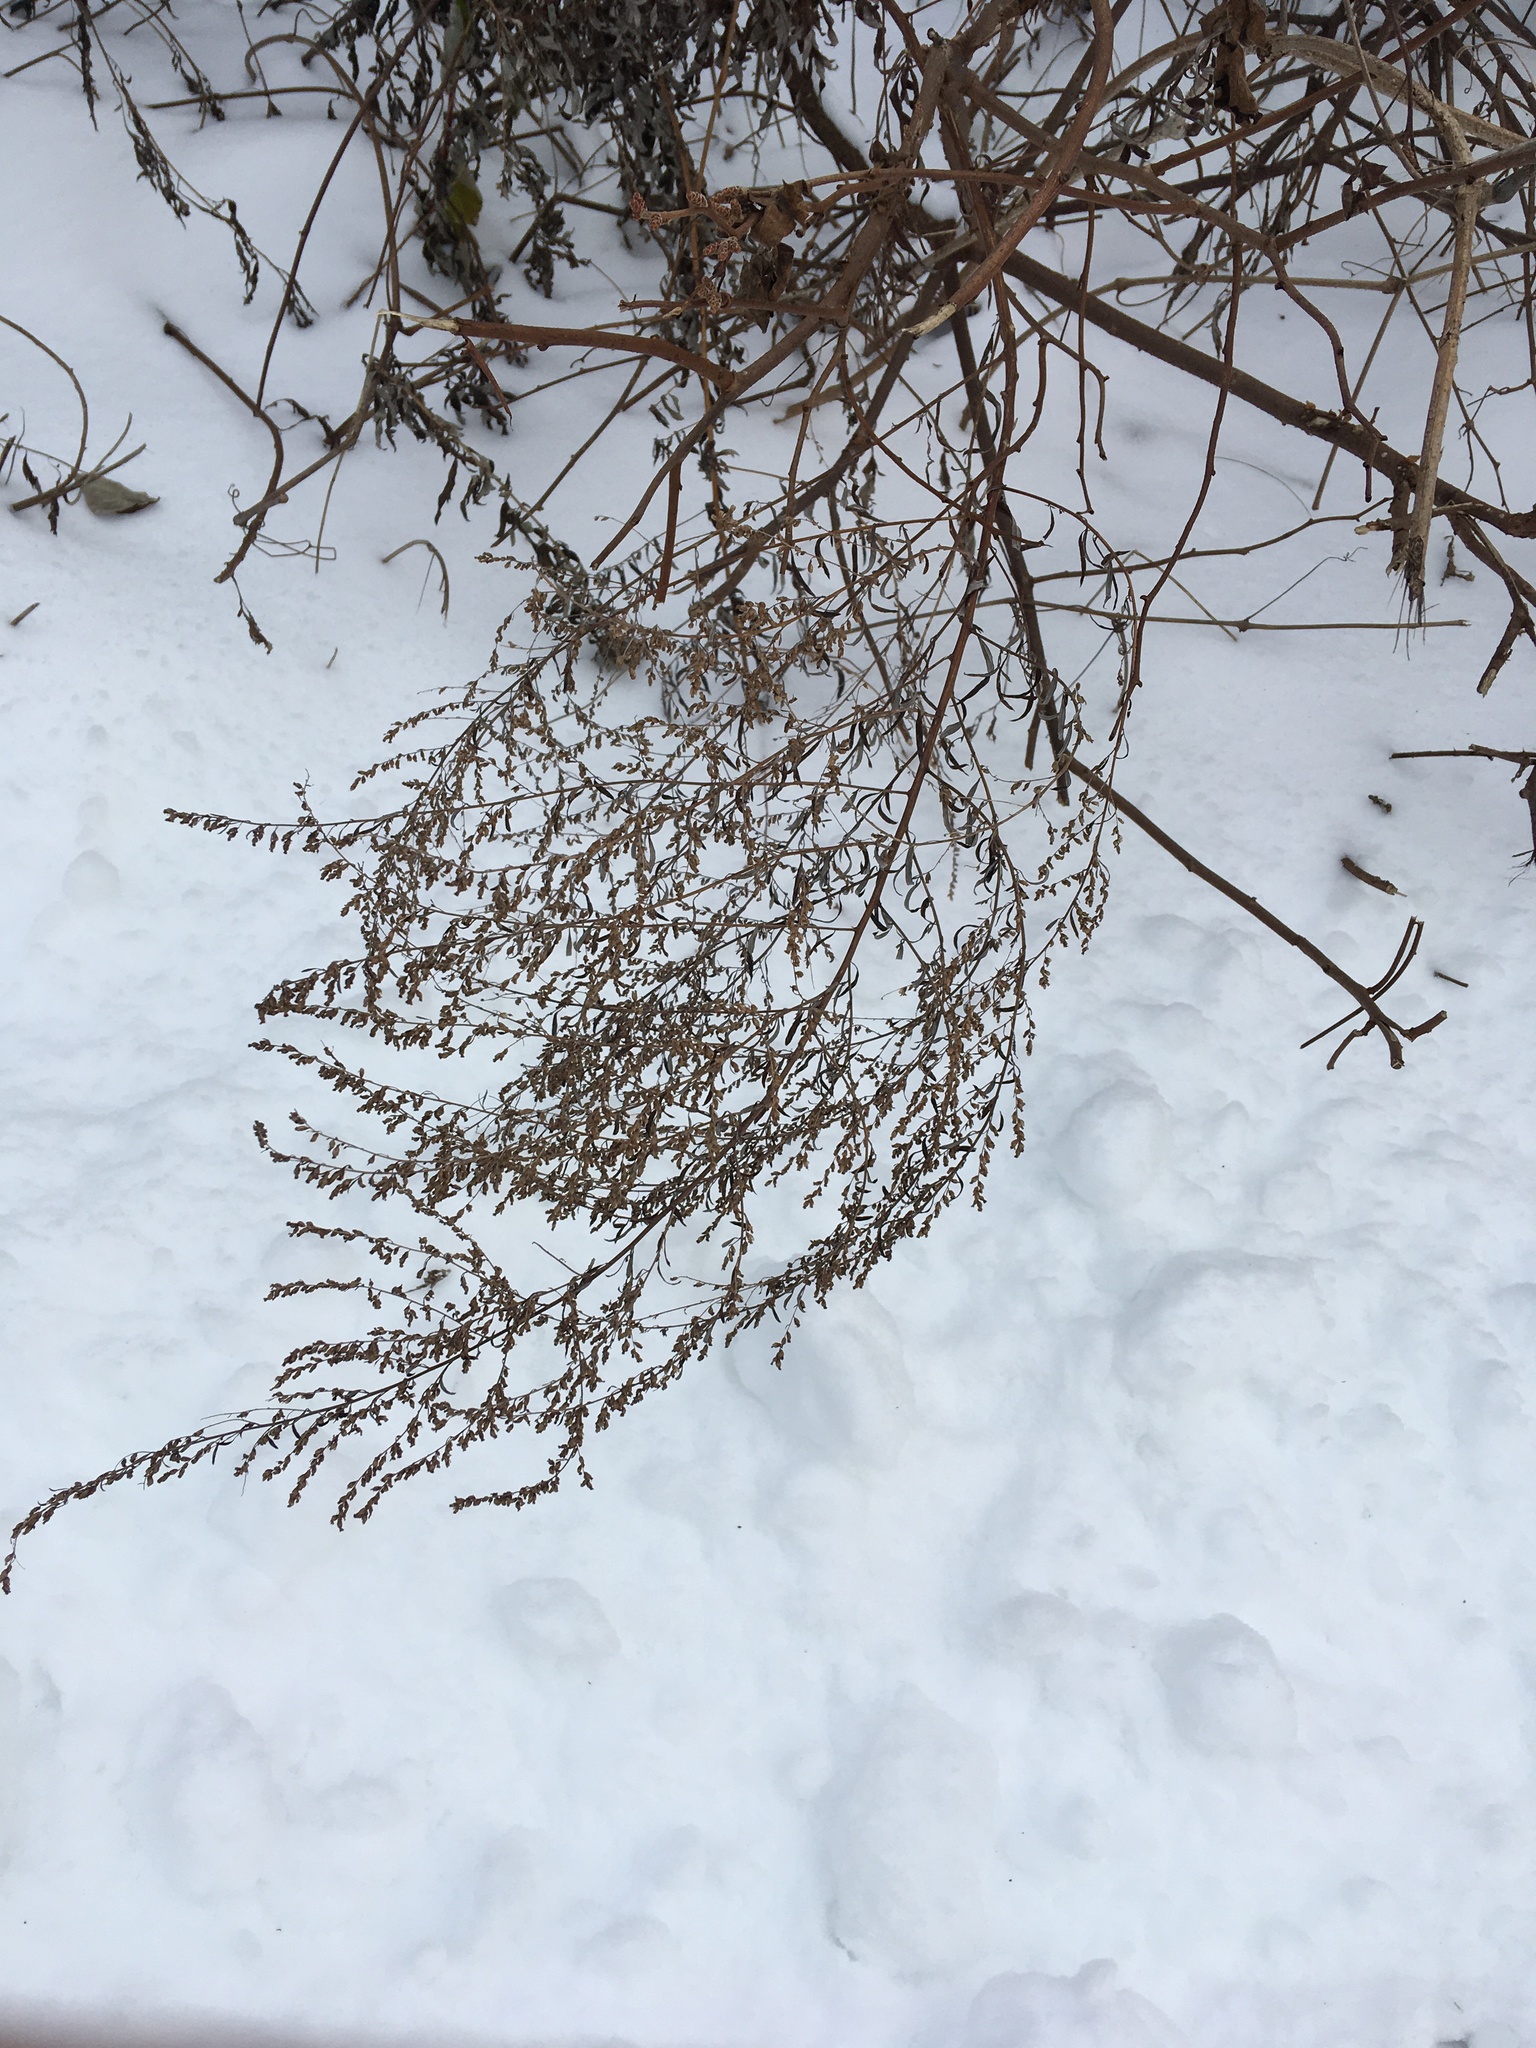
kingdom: Plantae
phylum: Tracheophyta
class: Magnoliopsida
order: Asterales
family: Asteraceae
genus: Artemisia
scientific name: Artemisia vulgaris
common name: Mugwort
